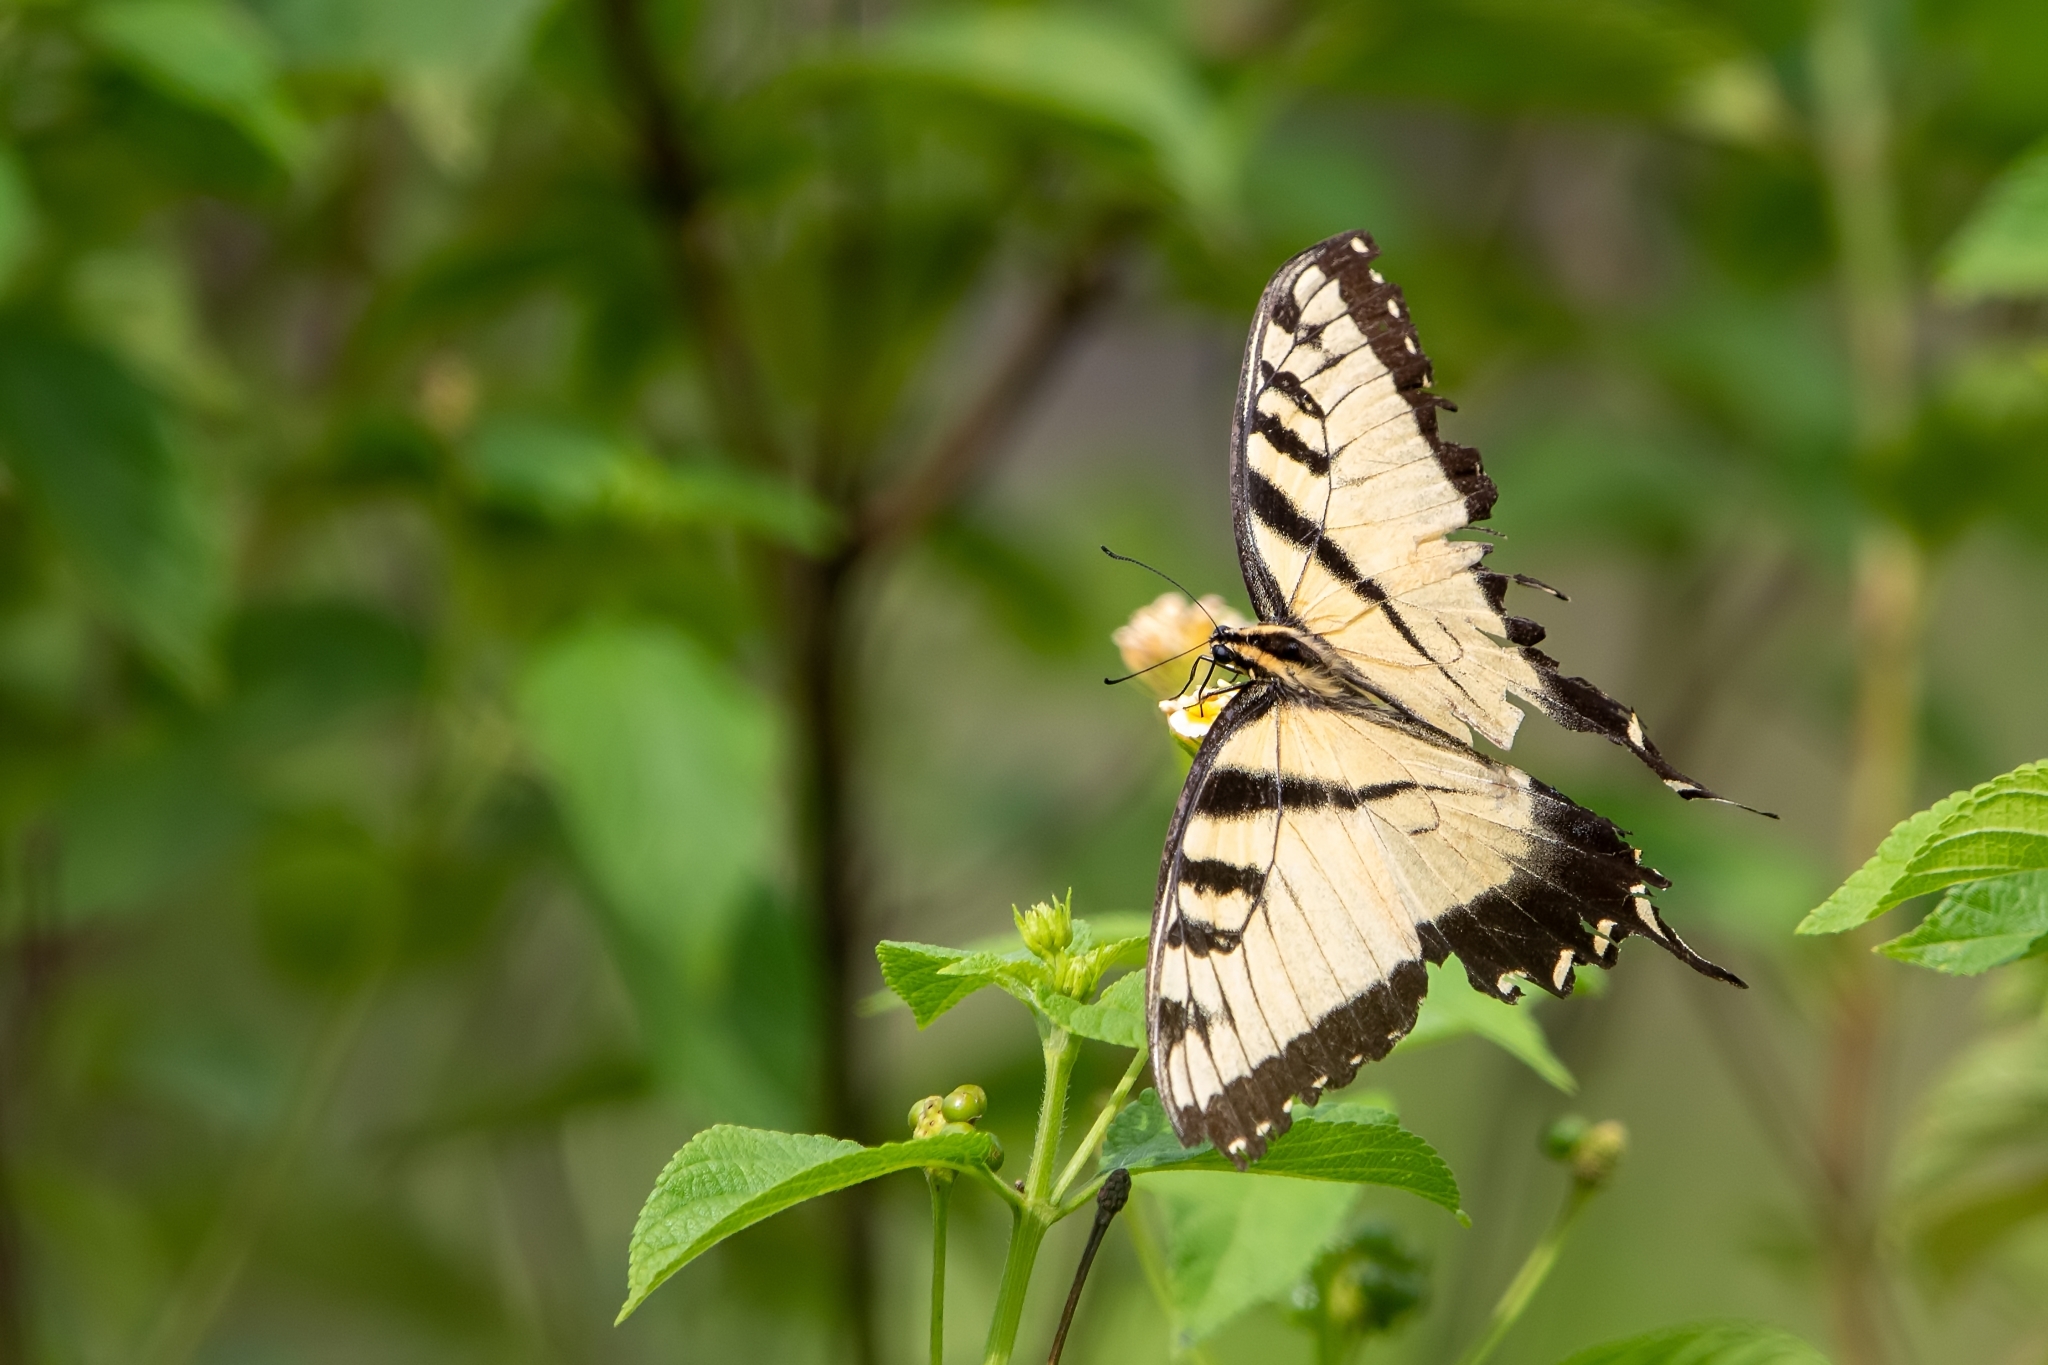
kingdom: Animalia
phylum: Arthropoda
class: Insecta
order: Lepidoptera
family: Papilionidae
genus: Papilio
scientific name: Papilio glaucus
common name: Tiger swallowtail
